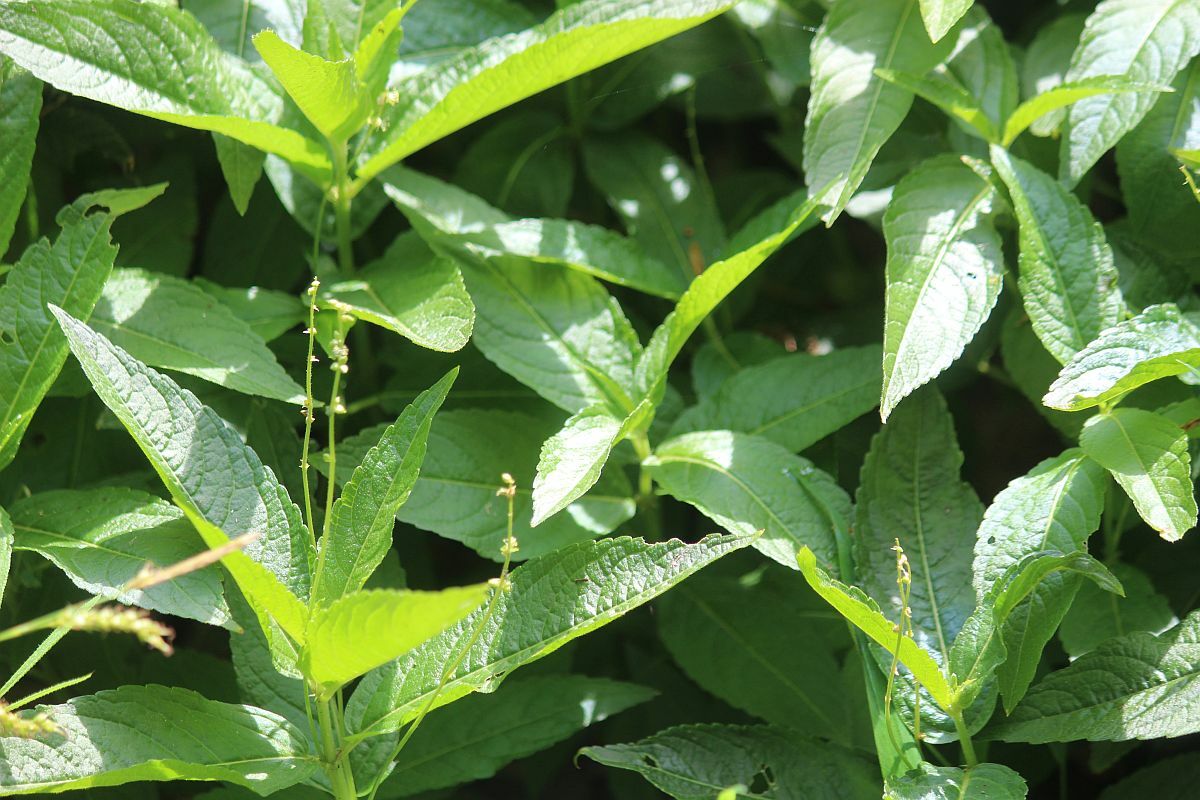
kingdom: Plantae
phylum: Tracheophyta
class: Magnoliopsida
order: Malpighiales
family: Euphorbiaceae
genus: Mercurialis
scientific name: Mercurialis perennis
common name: Dog mercury
